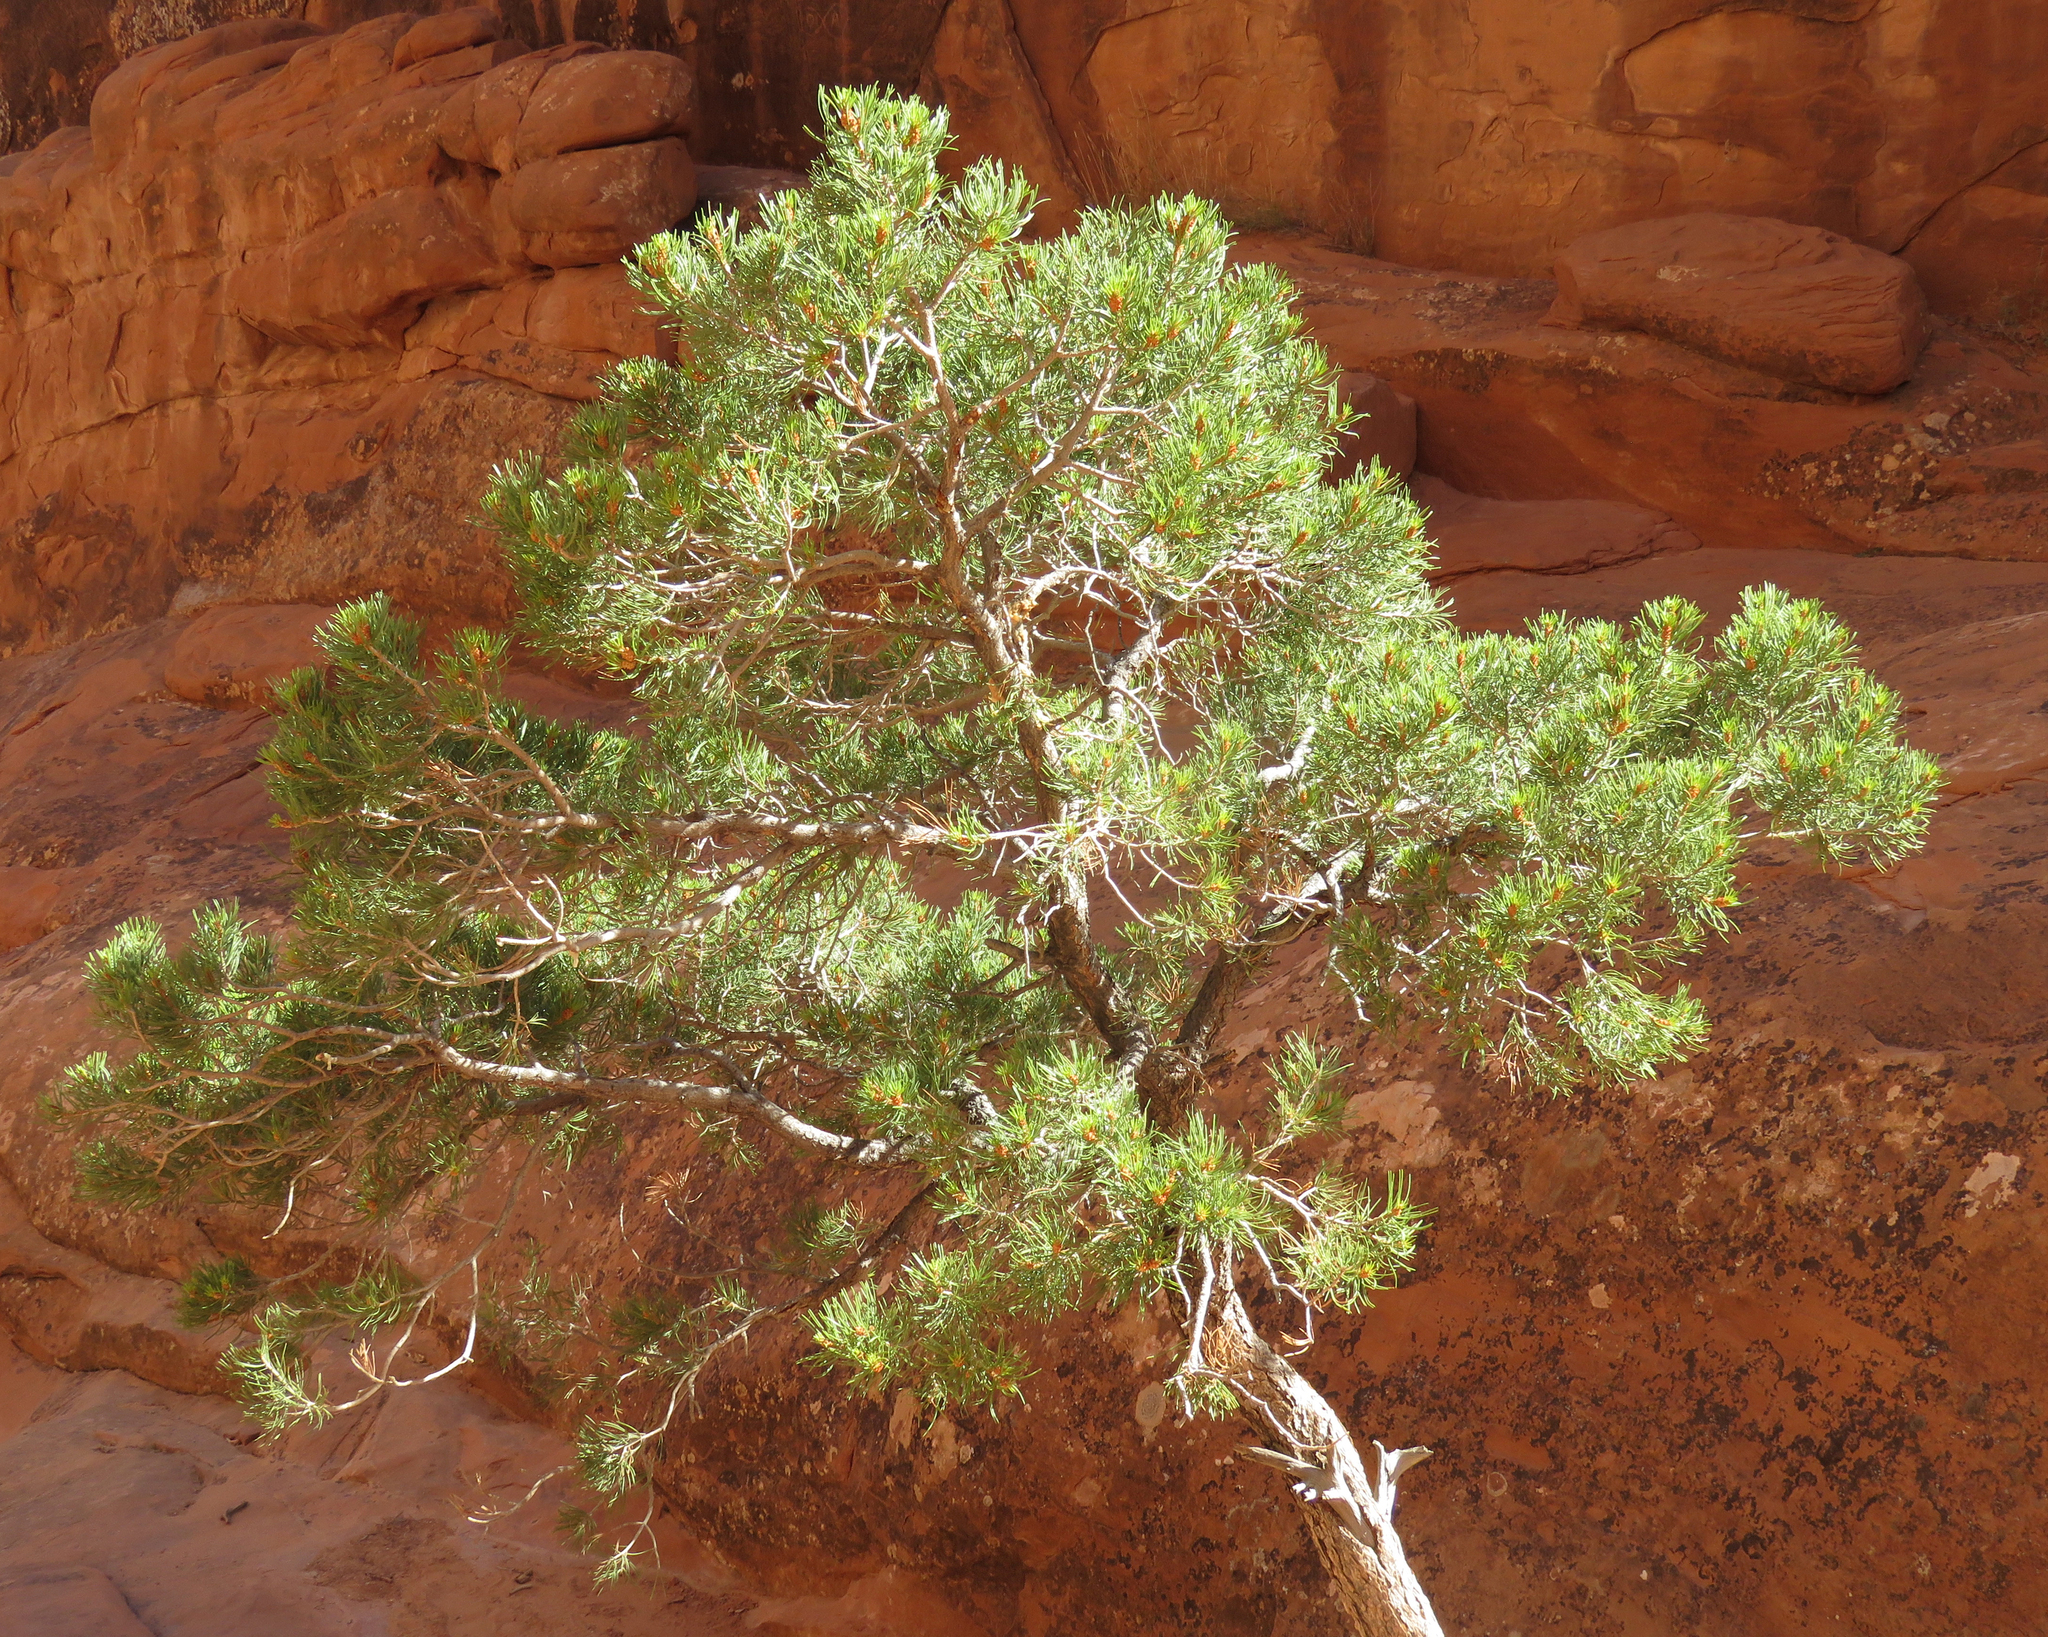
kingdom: Plantae
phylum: Tracheophyta
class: Pinopsida
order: Pinales
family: Pinaceae
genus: Pinus
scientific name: Pinus edulis
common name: Colorado pinyon
